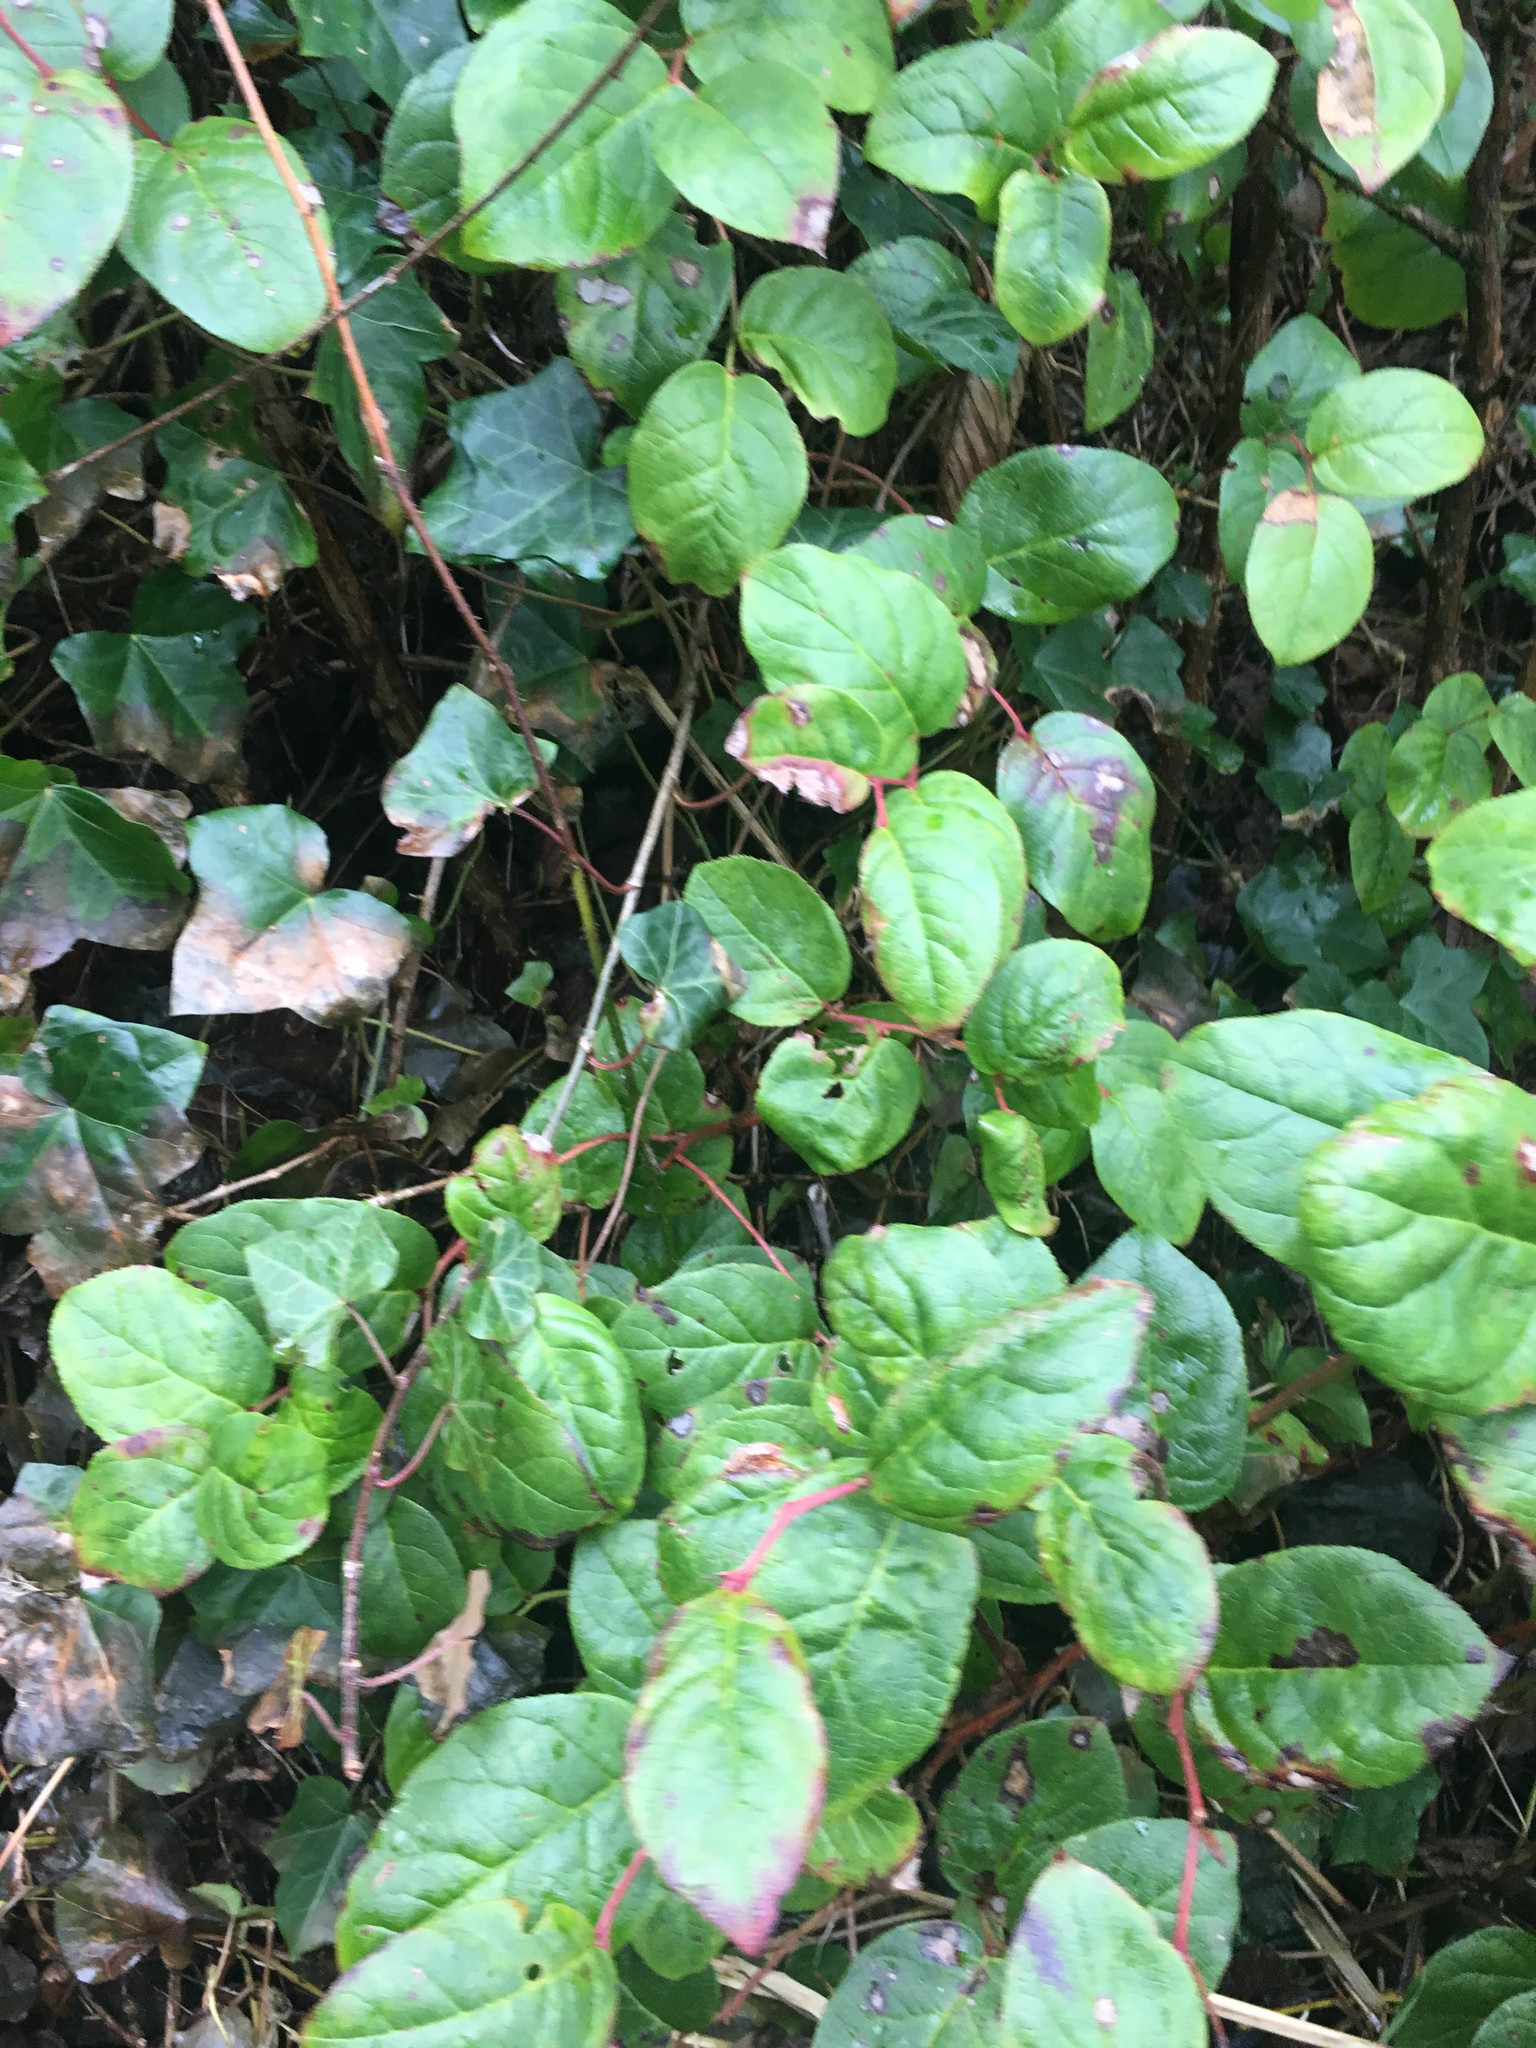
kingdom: Plantae
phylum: Tracheophyta
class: Magnoliopsida
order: Ericales
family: Ericaceae
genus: Gaultheria
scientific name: Gaultheria shallon
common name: Shallon
